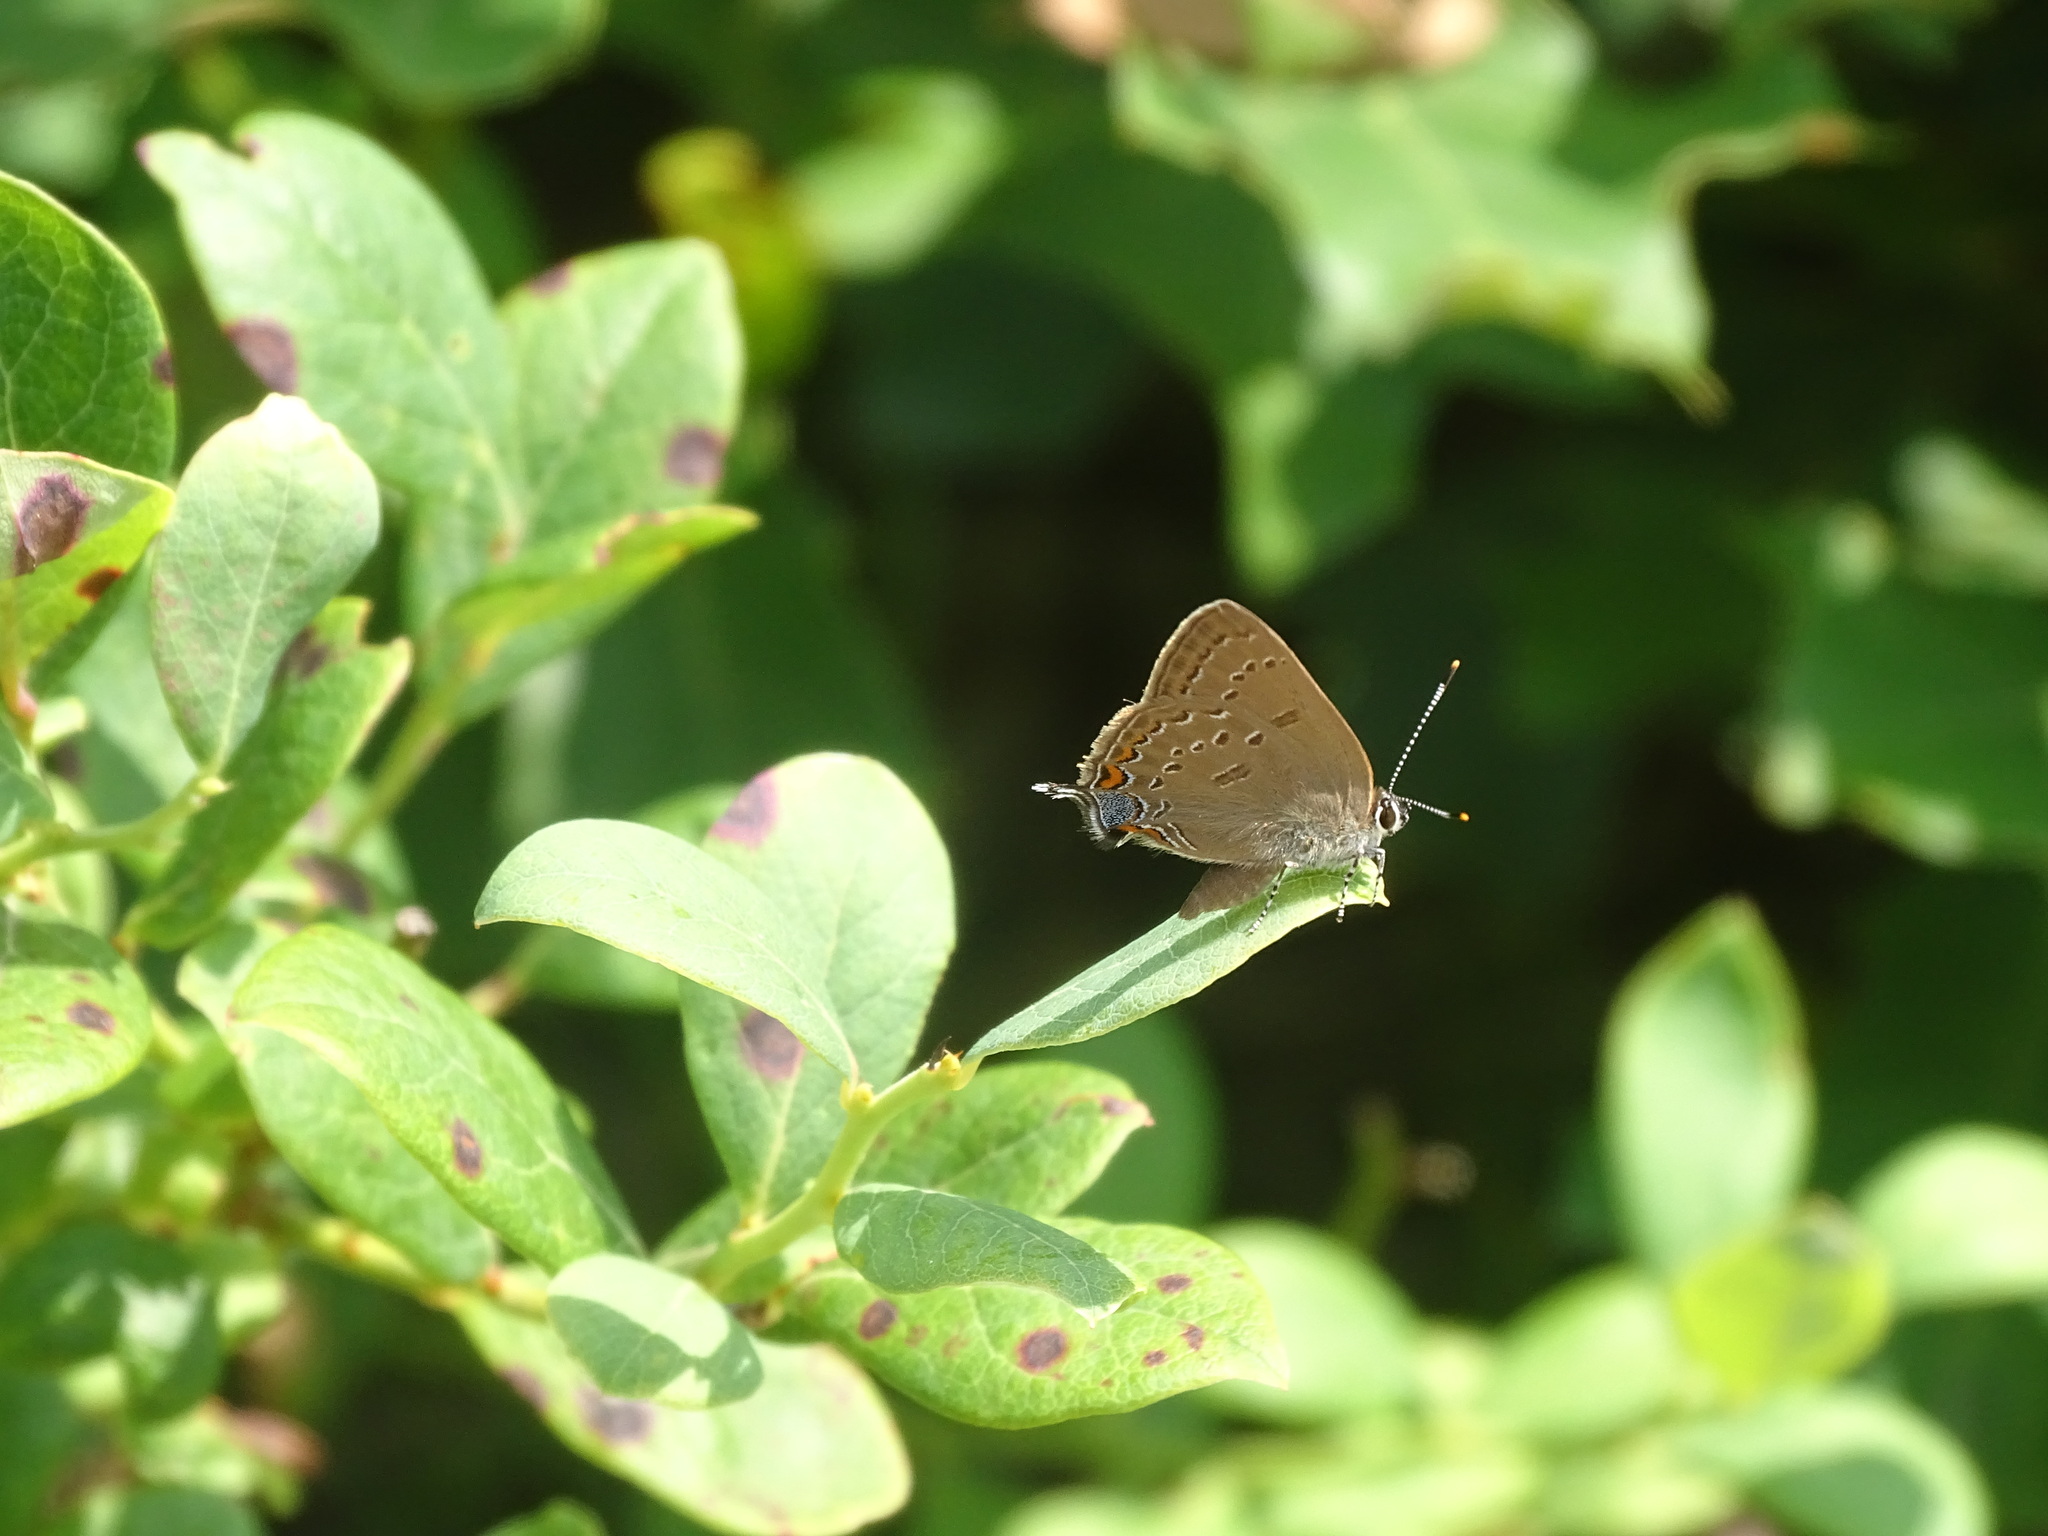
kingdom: Animalia
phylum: Arthropoda
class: Insecta
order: Lepidoptera
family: Lycaenidae
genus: Satyrium
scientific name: Satyrium edwardsii
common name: Edwards' hairstreak
